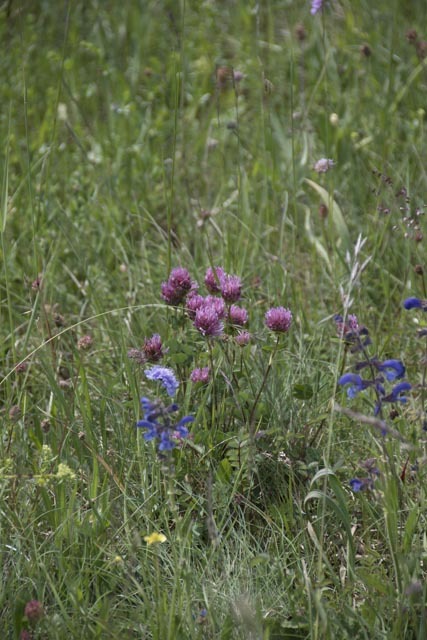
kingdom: Plantae
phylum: Tracheophyta
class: Magnoliopsida
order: Fabales
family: Fabaceae
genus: Trifolium
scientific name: Trifolium pratense
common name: Red clover
